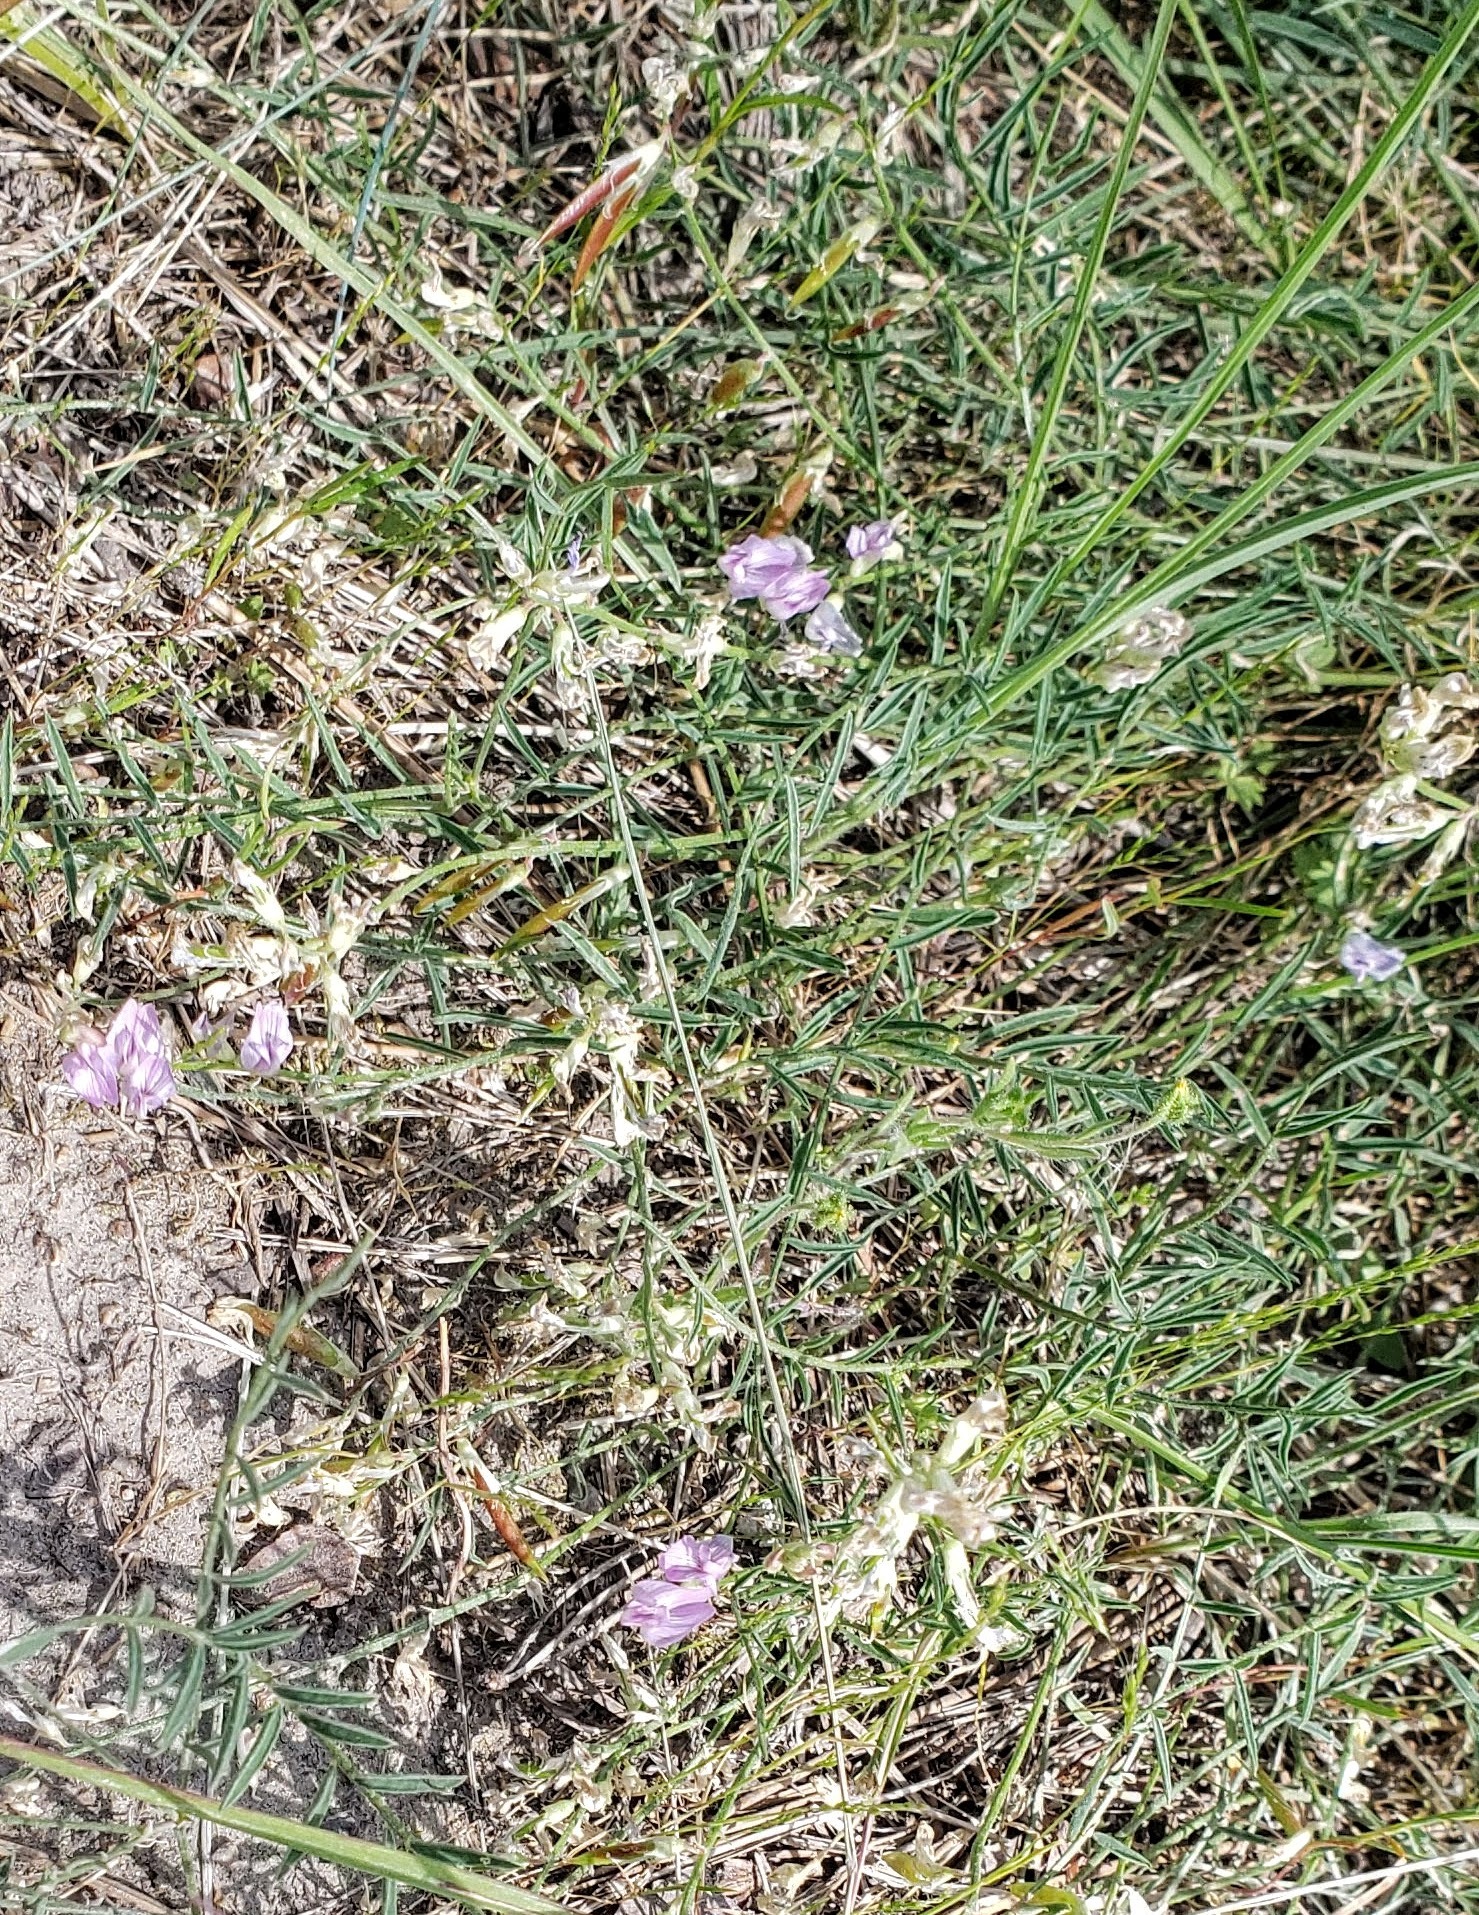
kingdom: Plantae
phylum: Tracheophyta
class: Magnoliopsida
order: Fabales
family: Fabaceae
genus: Astragalus
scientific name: Astragalus miser
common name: Timber milkvetch
